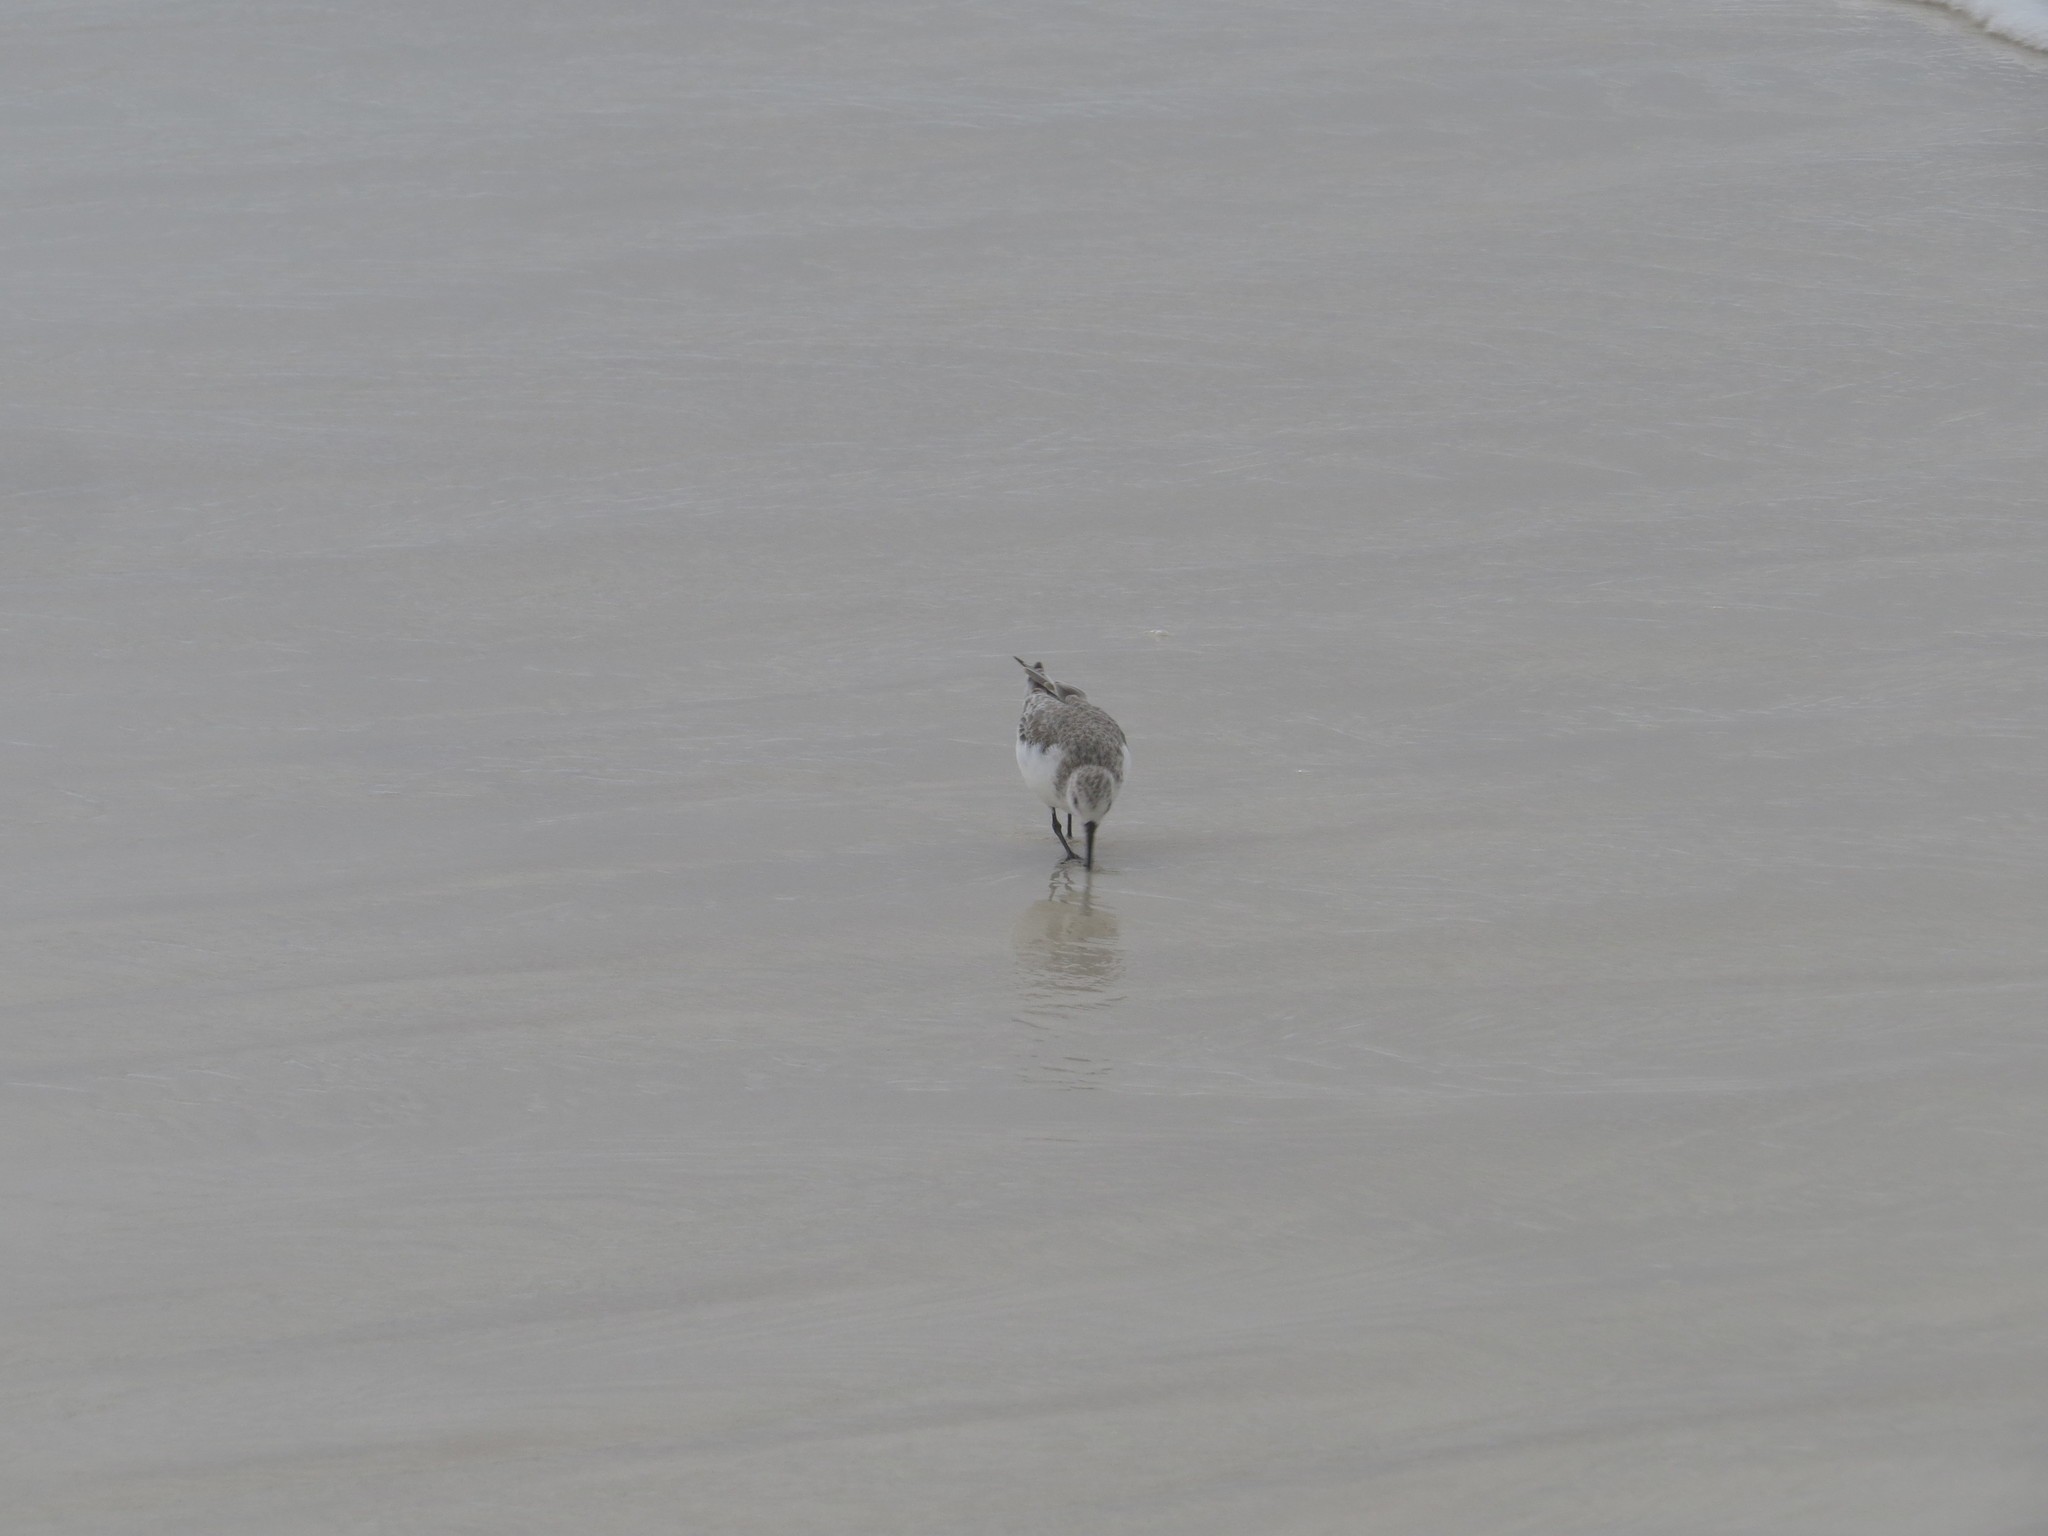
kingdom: Animalia
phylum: Chordata
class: Aves
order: Charadriiformes
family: Scolopacidae
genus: Calidris
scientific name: Calidris alba
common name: Sanderling
